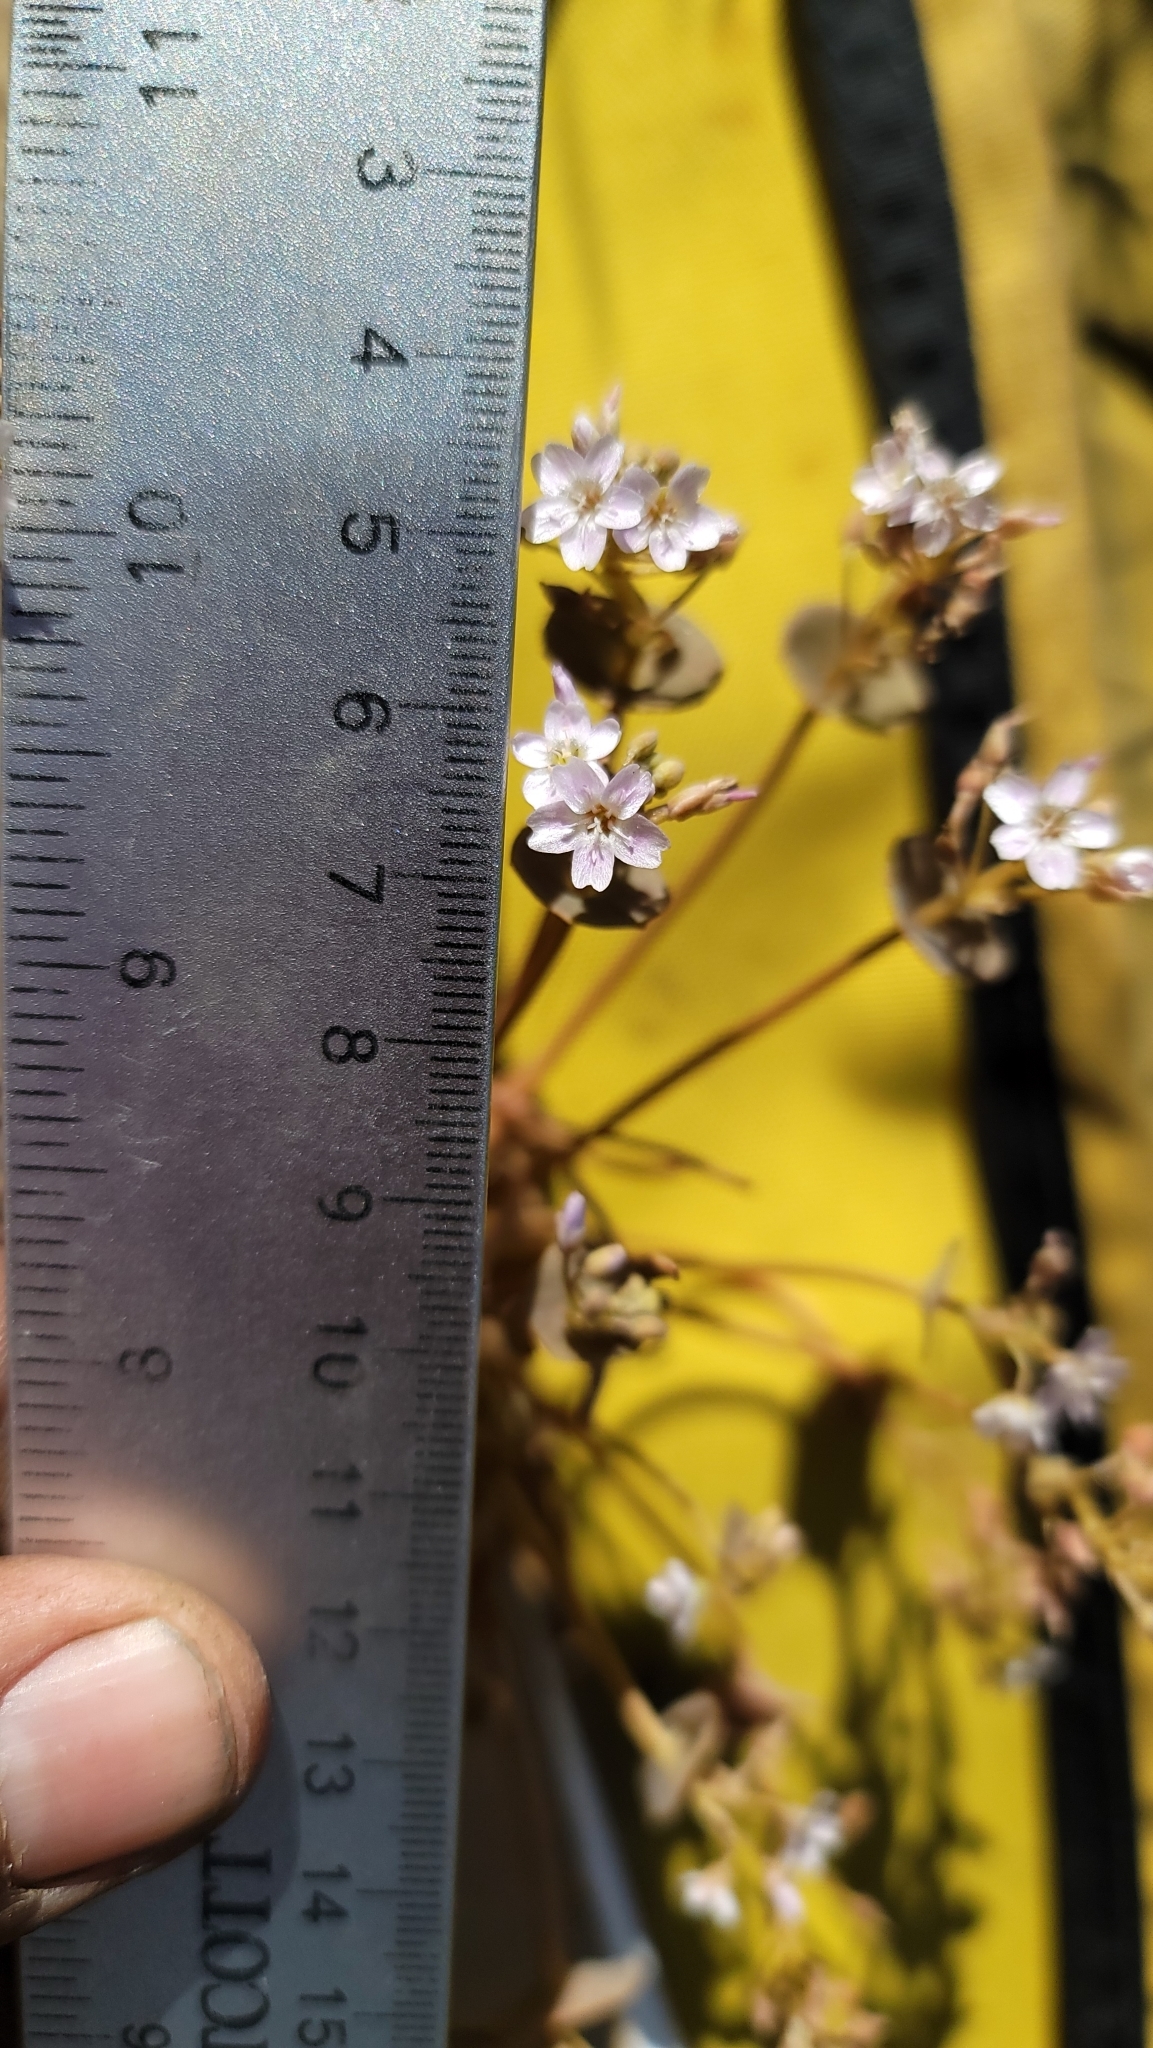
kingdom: Plantae
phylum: Tracheophyta
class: Magnoliopsida
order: Caryophyllales
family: Montiaceae
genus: Claytonia
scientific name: Claytonia parviflora
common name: Indian-lettuce
